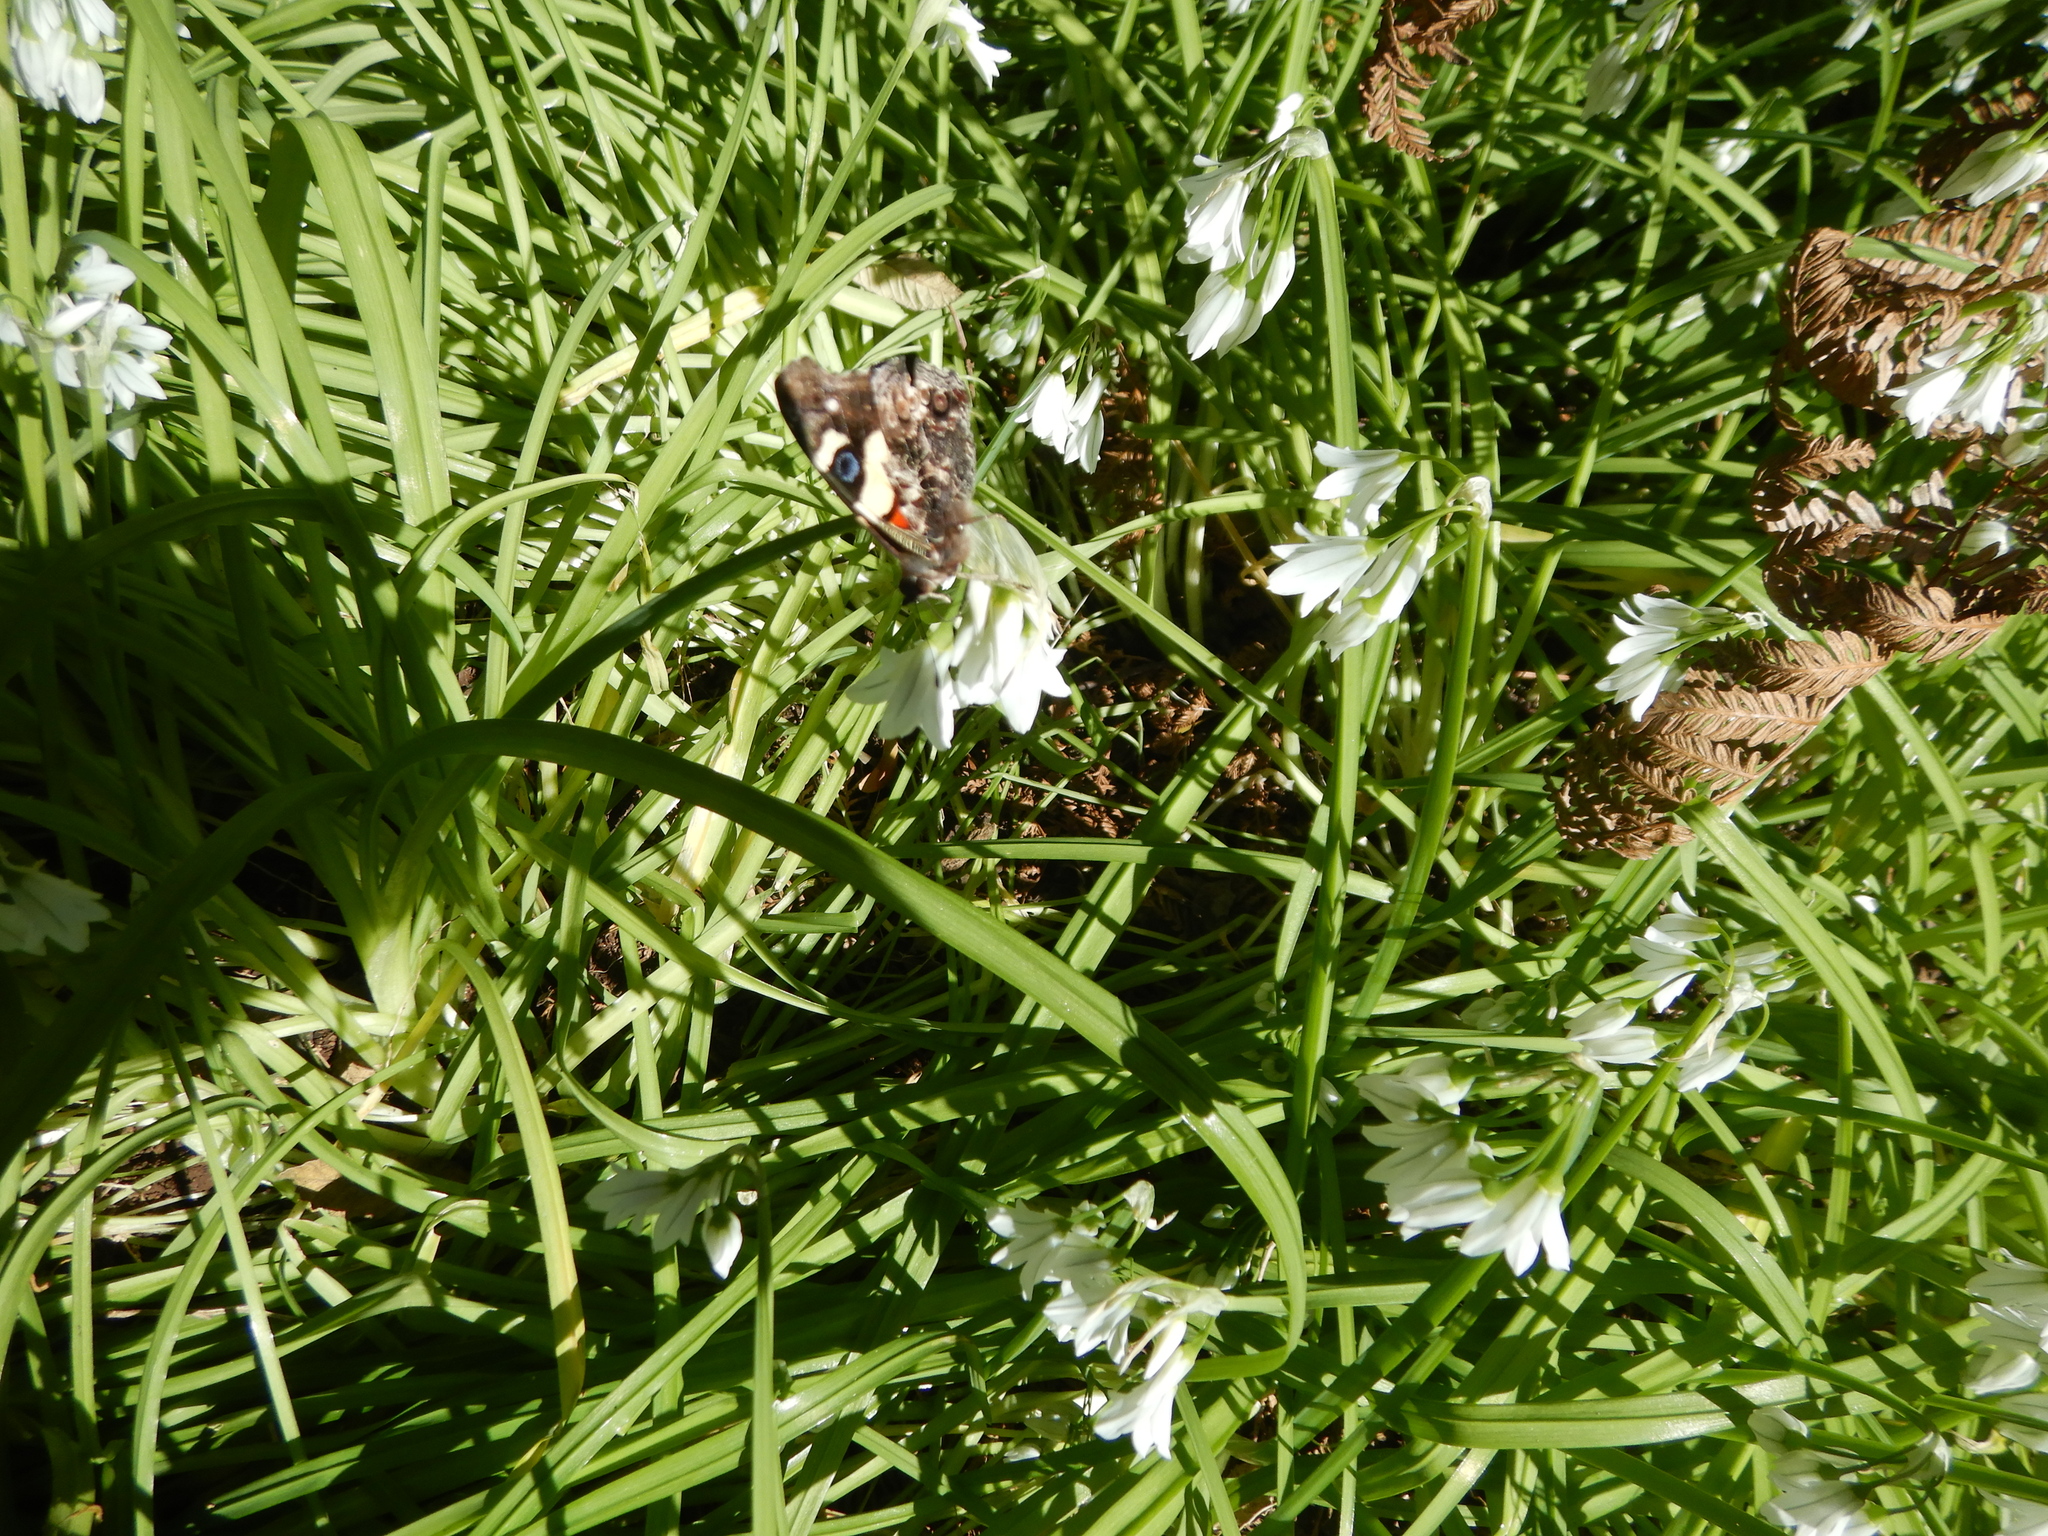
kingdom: Plantae
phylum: Tracheophyta
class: Liliopsida
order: Asparagales
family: Amaryllidaceae
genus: Allium
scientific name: Allium triquetrum
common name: Three-cornered garlic
